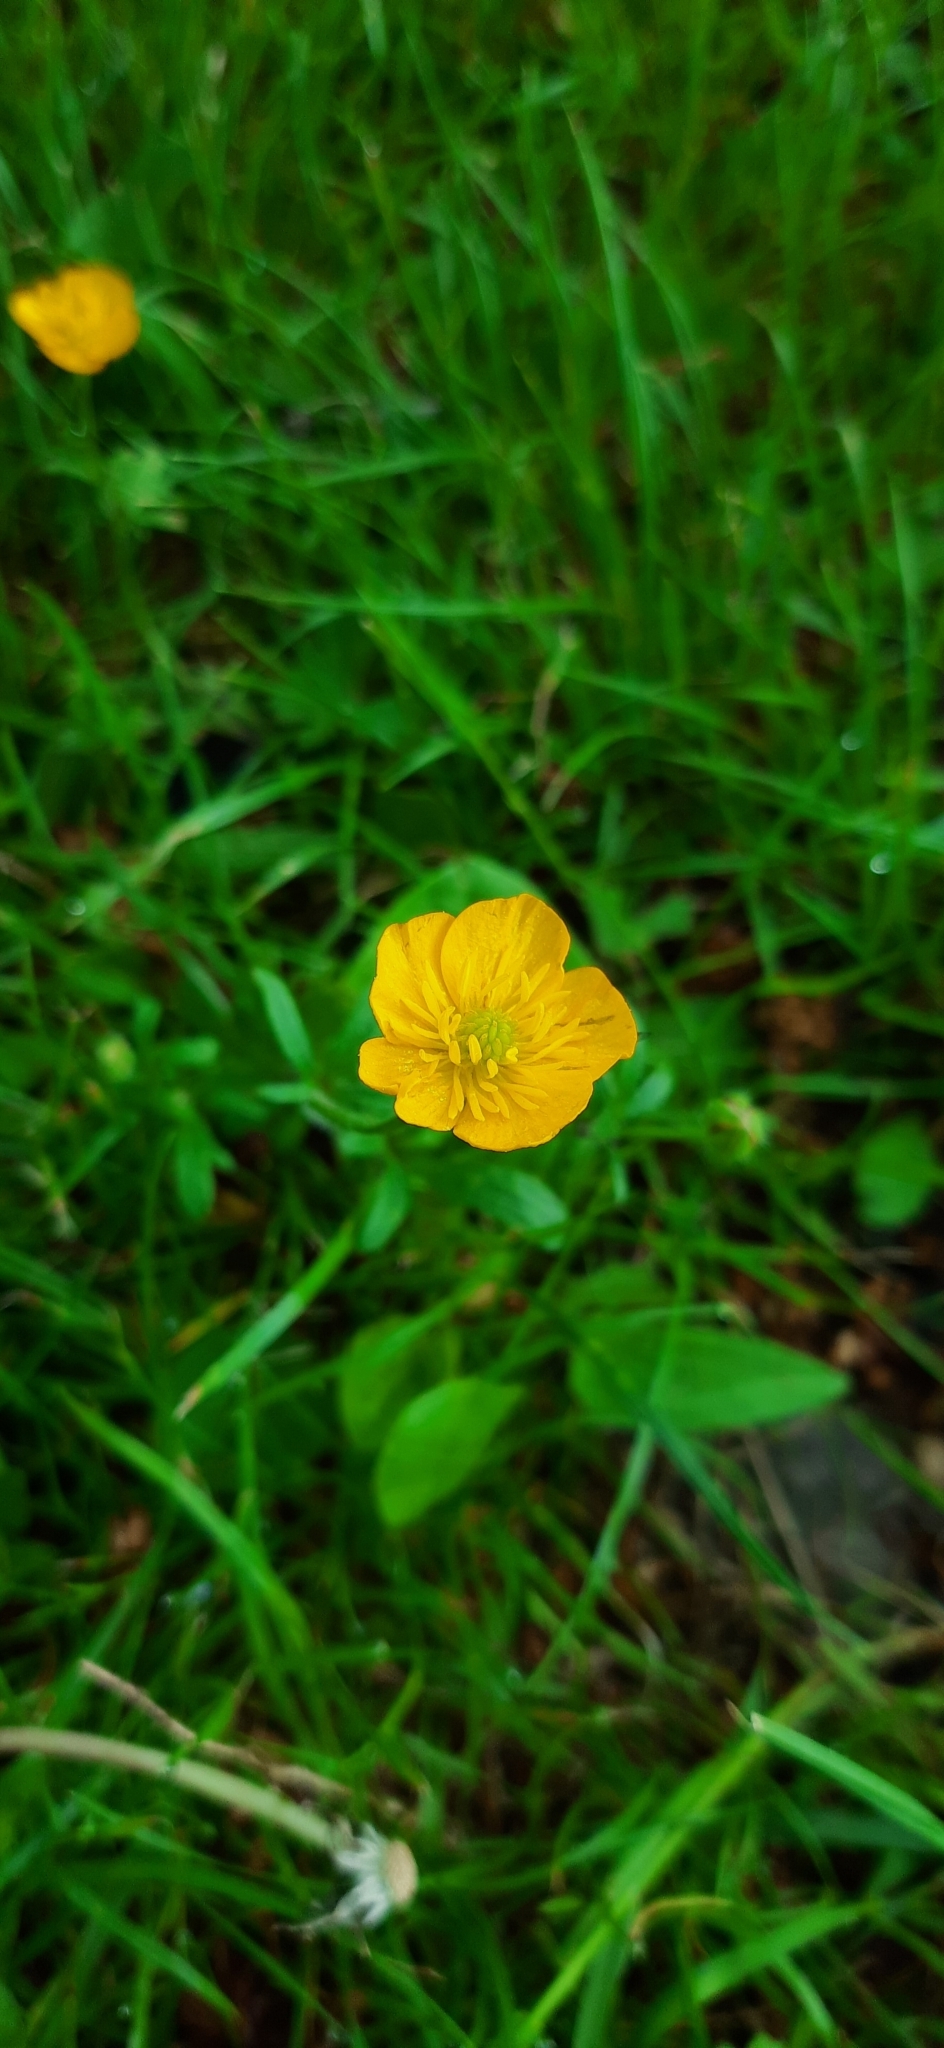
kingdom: Plantae
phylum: Tracheophyta
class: Magnoliopsida
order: Ranunculales
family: Ranunculaceae
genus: Ranunculus
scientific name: Ranunculus bulbosus
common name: Bulbous buttercup
